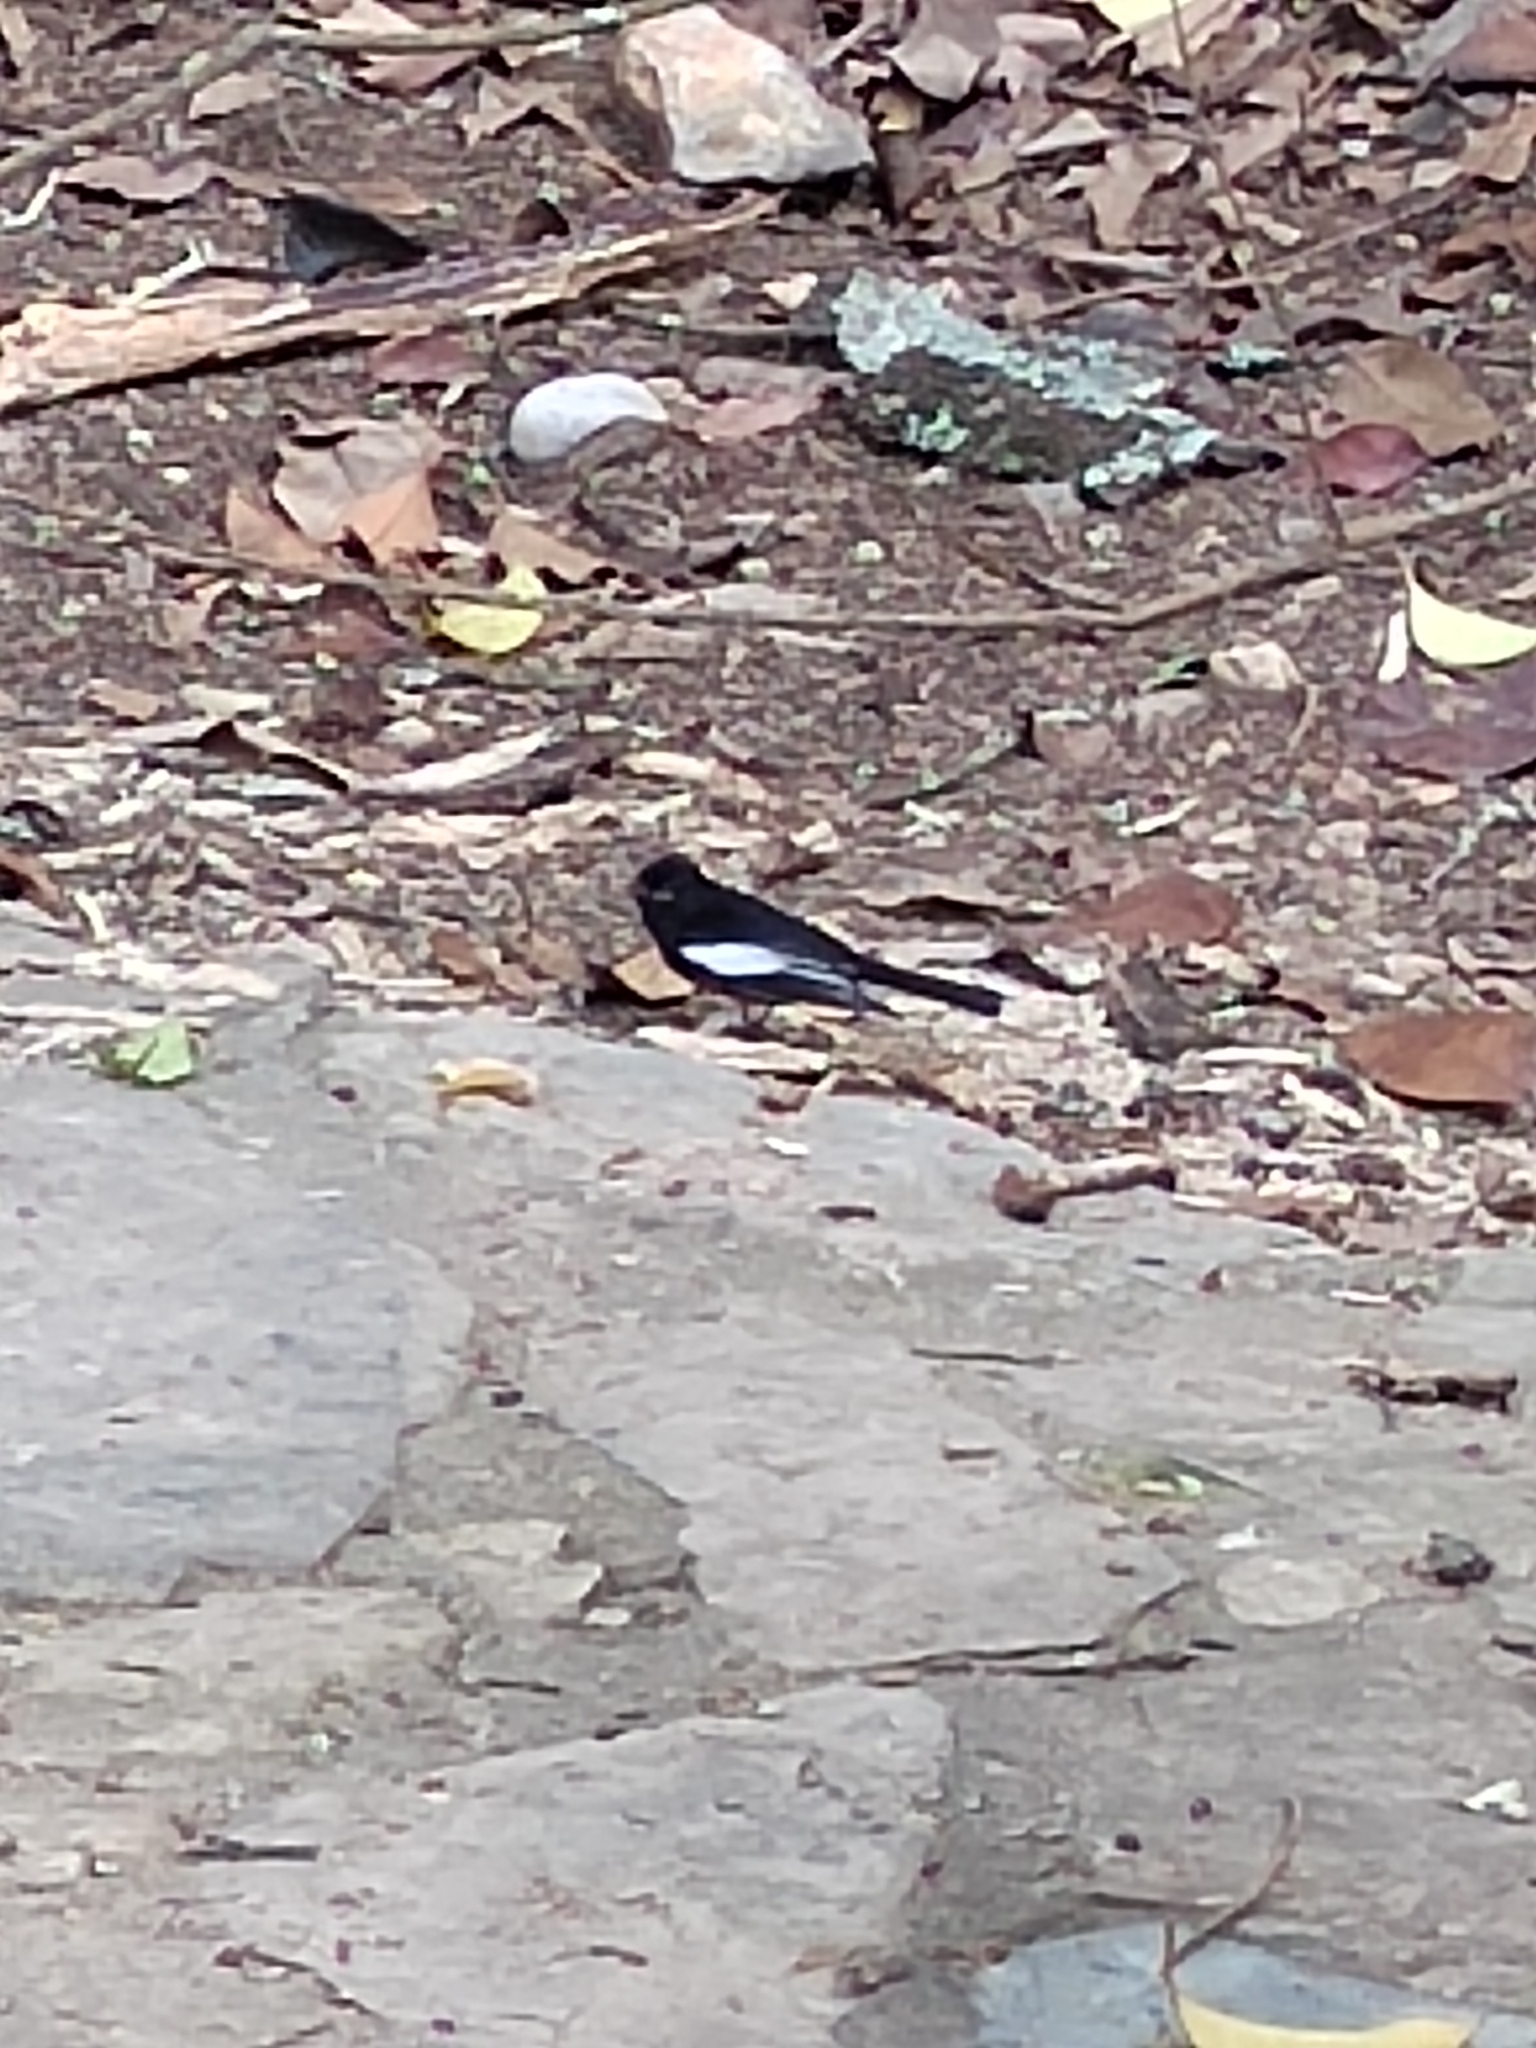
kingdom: Animalia
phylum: Chordata
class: Aves
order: Passeriformes
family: Parulidae
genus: Myioborus
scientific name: Myioborus pictus
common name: Painted whitestart
